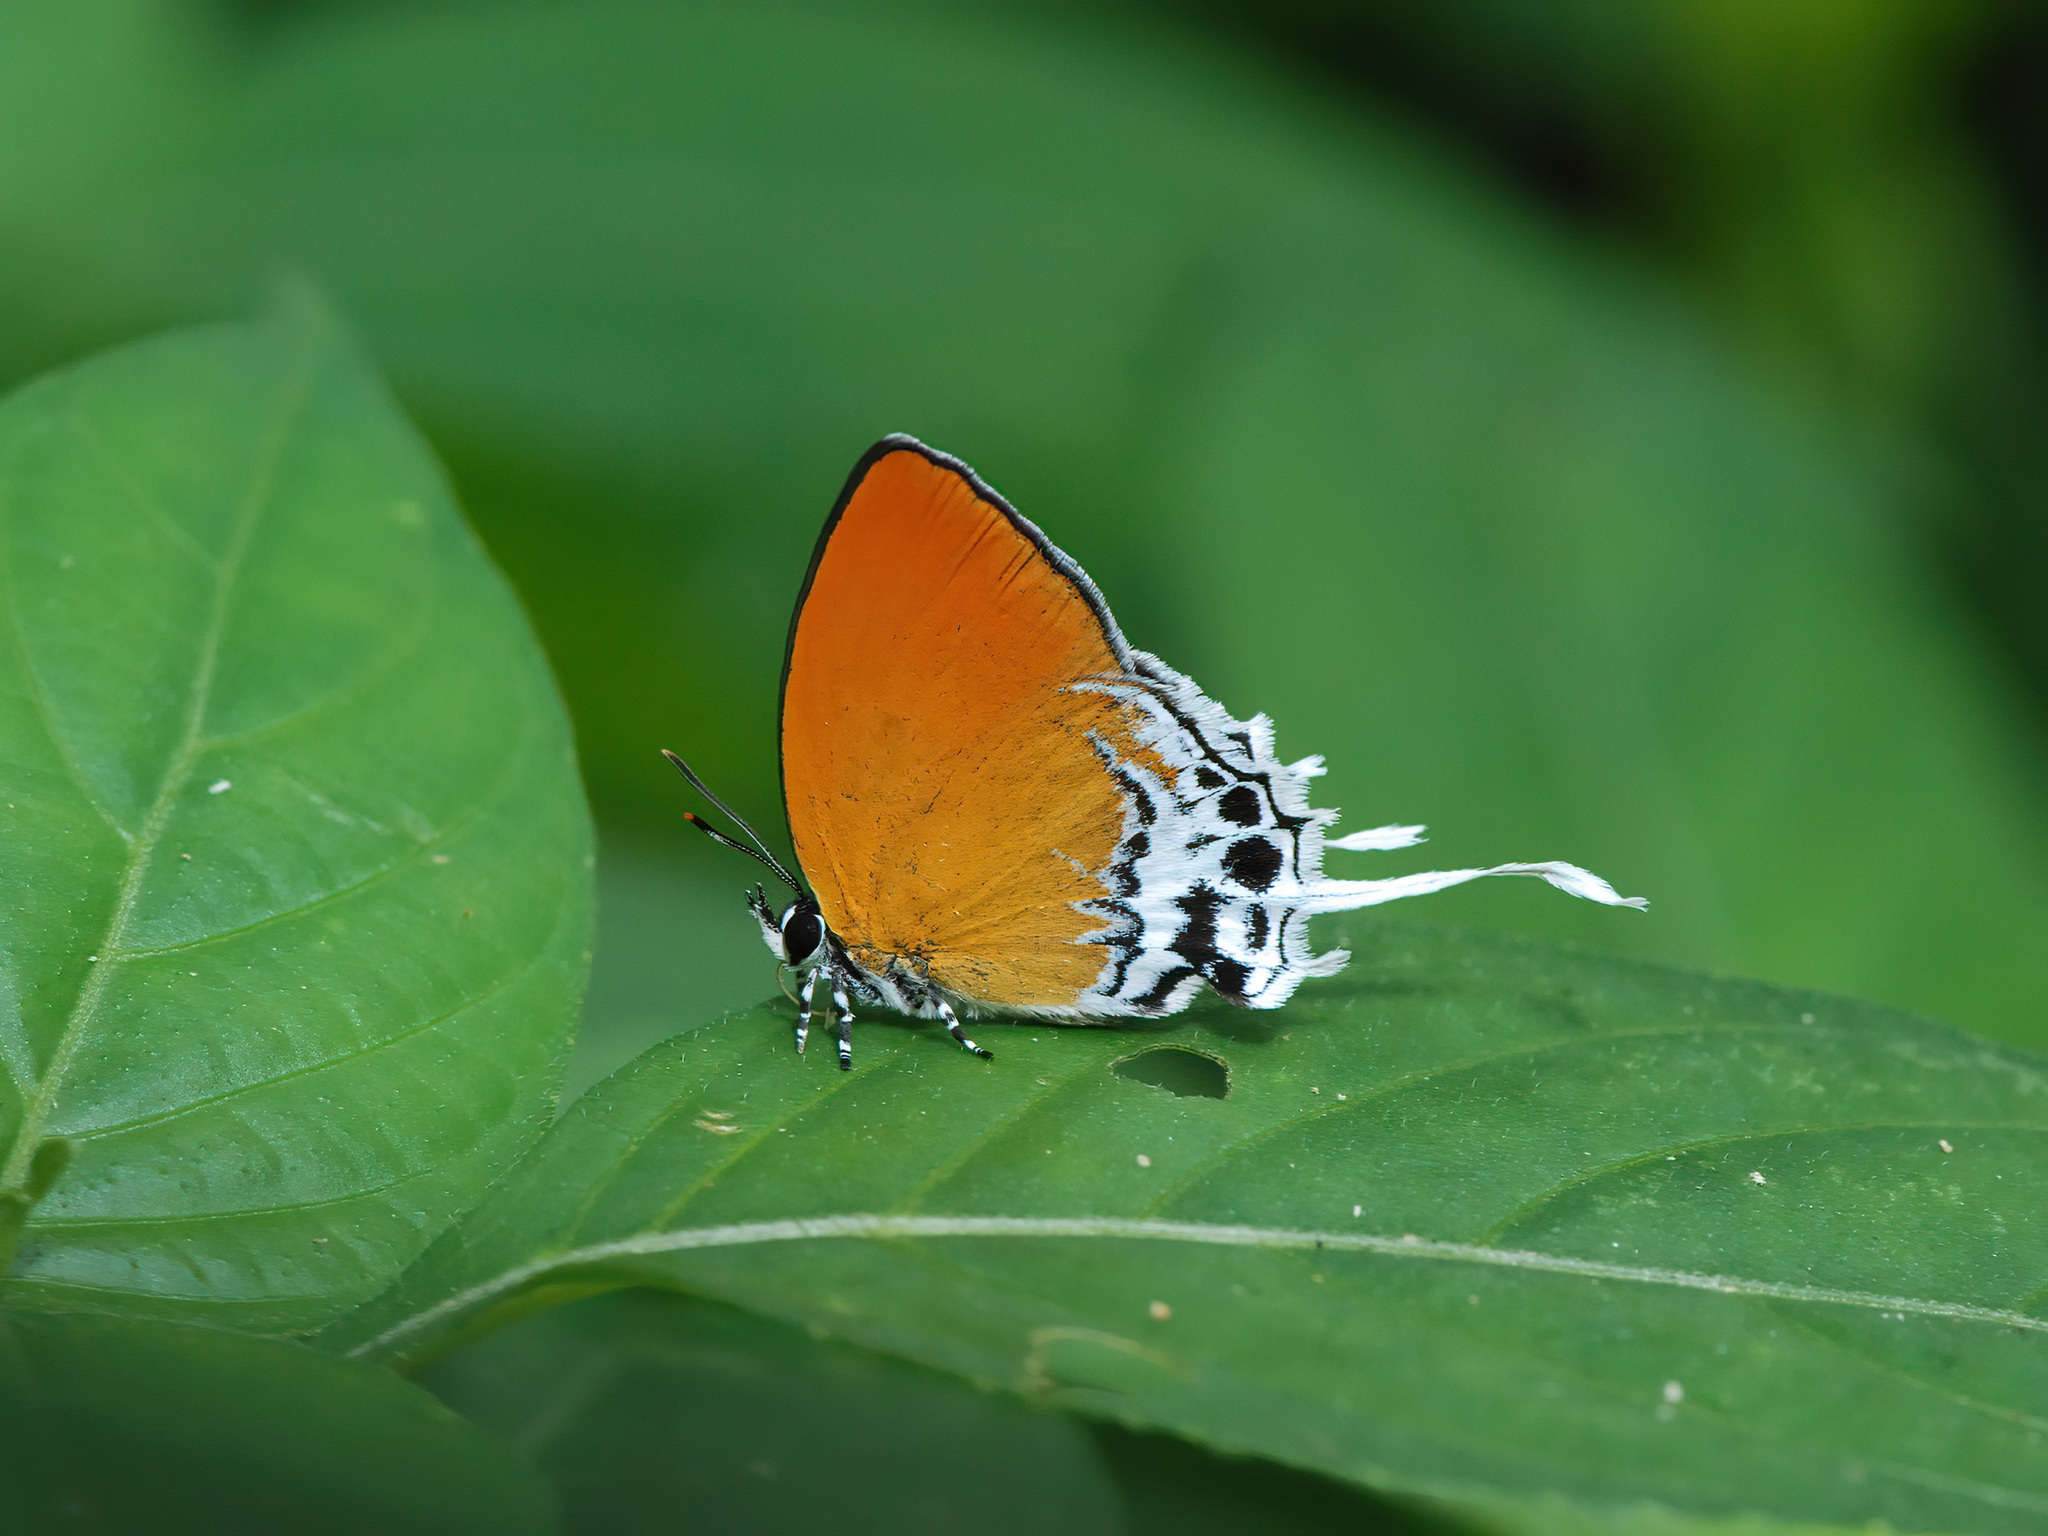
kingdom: Animalia
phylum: Arthropoda
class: Insecta
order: Lepidoptera
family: Lycaenidae
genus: Eooxylides
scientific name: Eooxylides tharis
